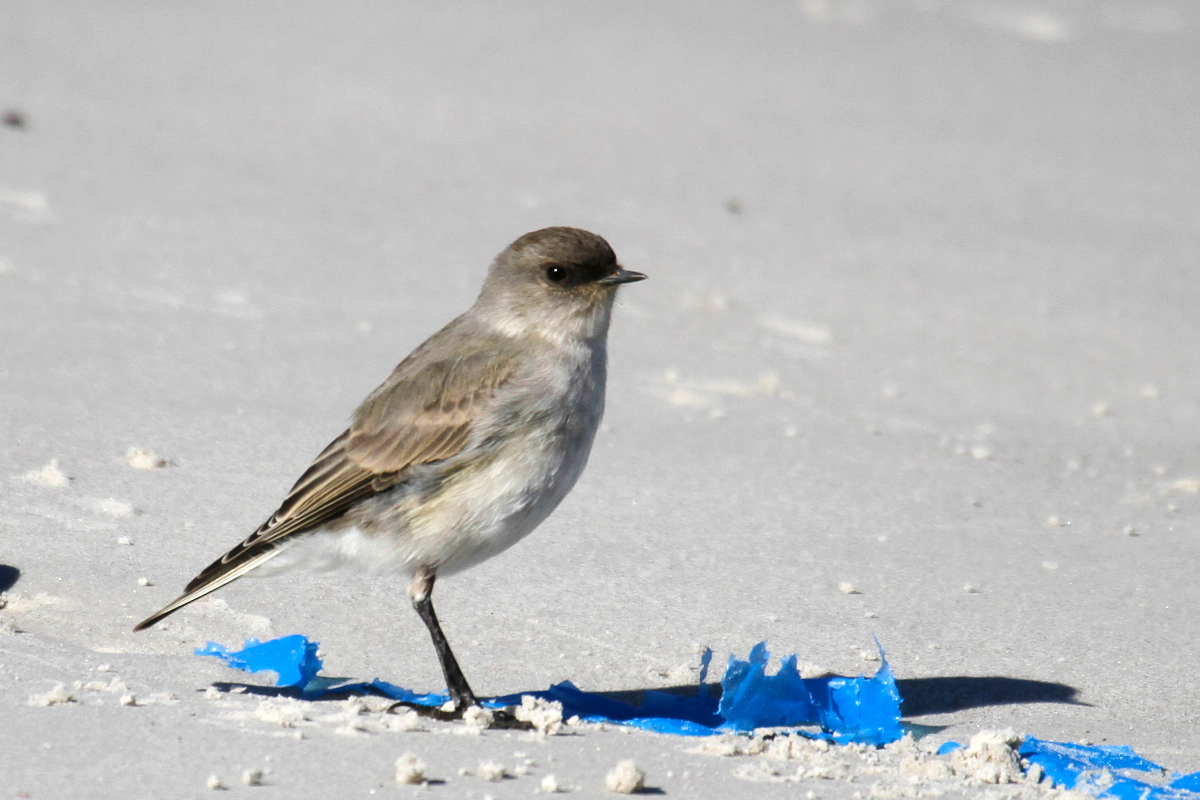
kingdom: Animalia
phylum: Chordata
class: Aves
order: Passeriformes
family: Tyrannidae
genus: Muscisaxicola
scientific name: Muscisaxicola maclovianus
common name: Dark-faced ground tyrant
